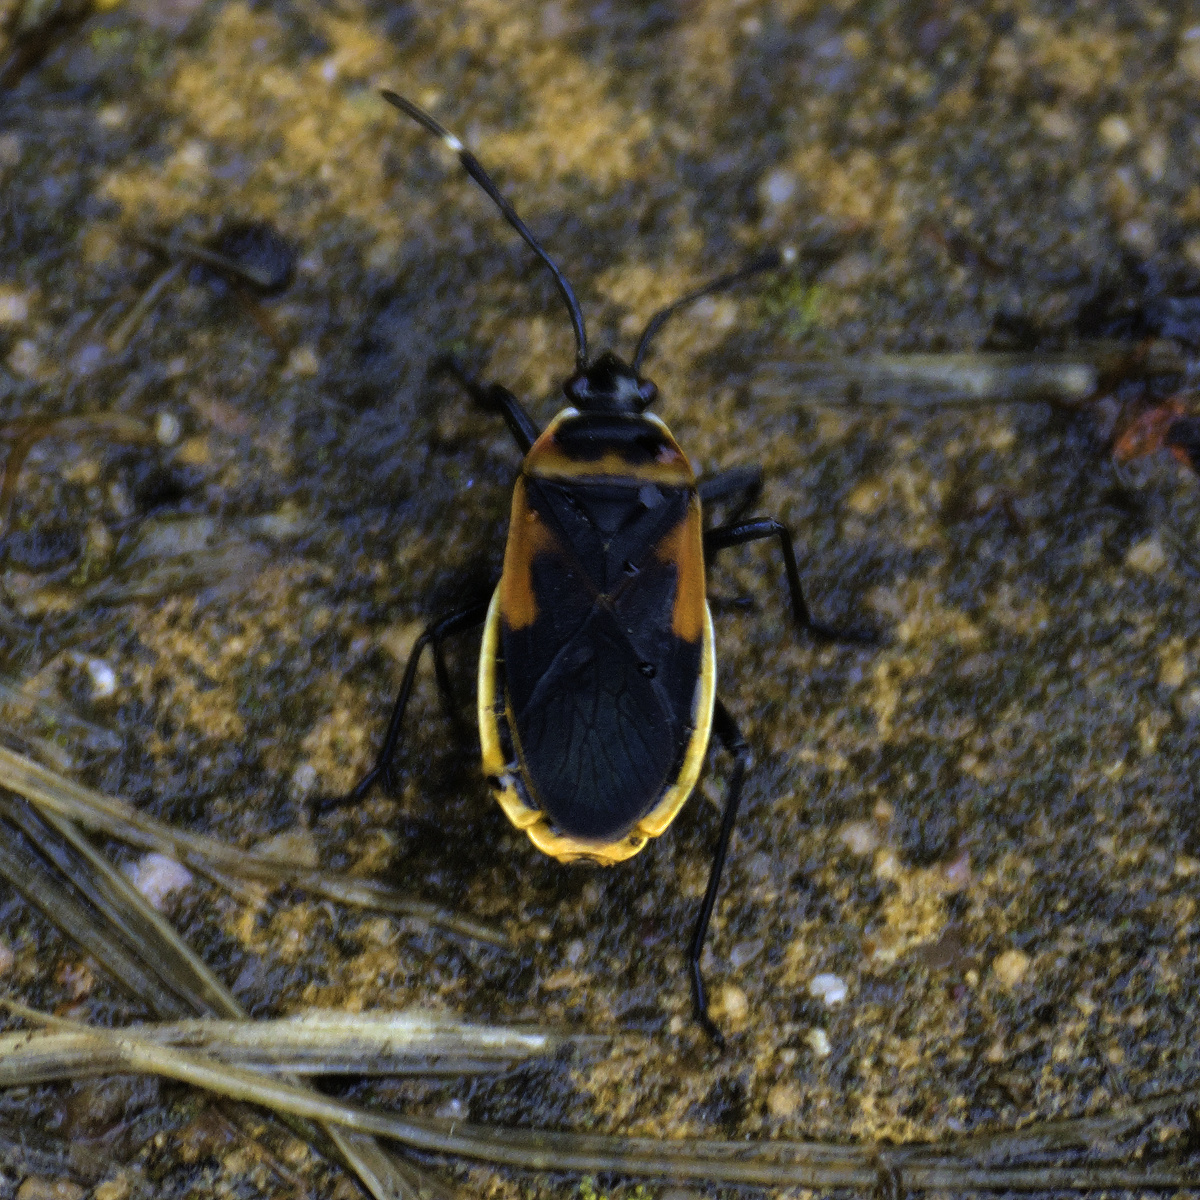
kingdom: Animalia
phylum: Arthropoda
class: Insecta
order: Hemiptera
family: Pyrrhocoridae
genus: Dindymus
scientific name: Dindymus
